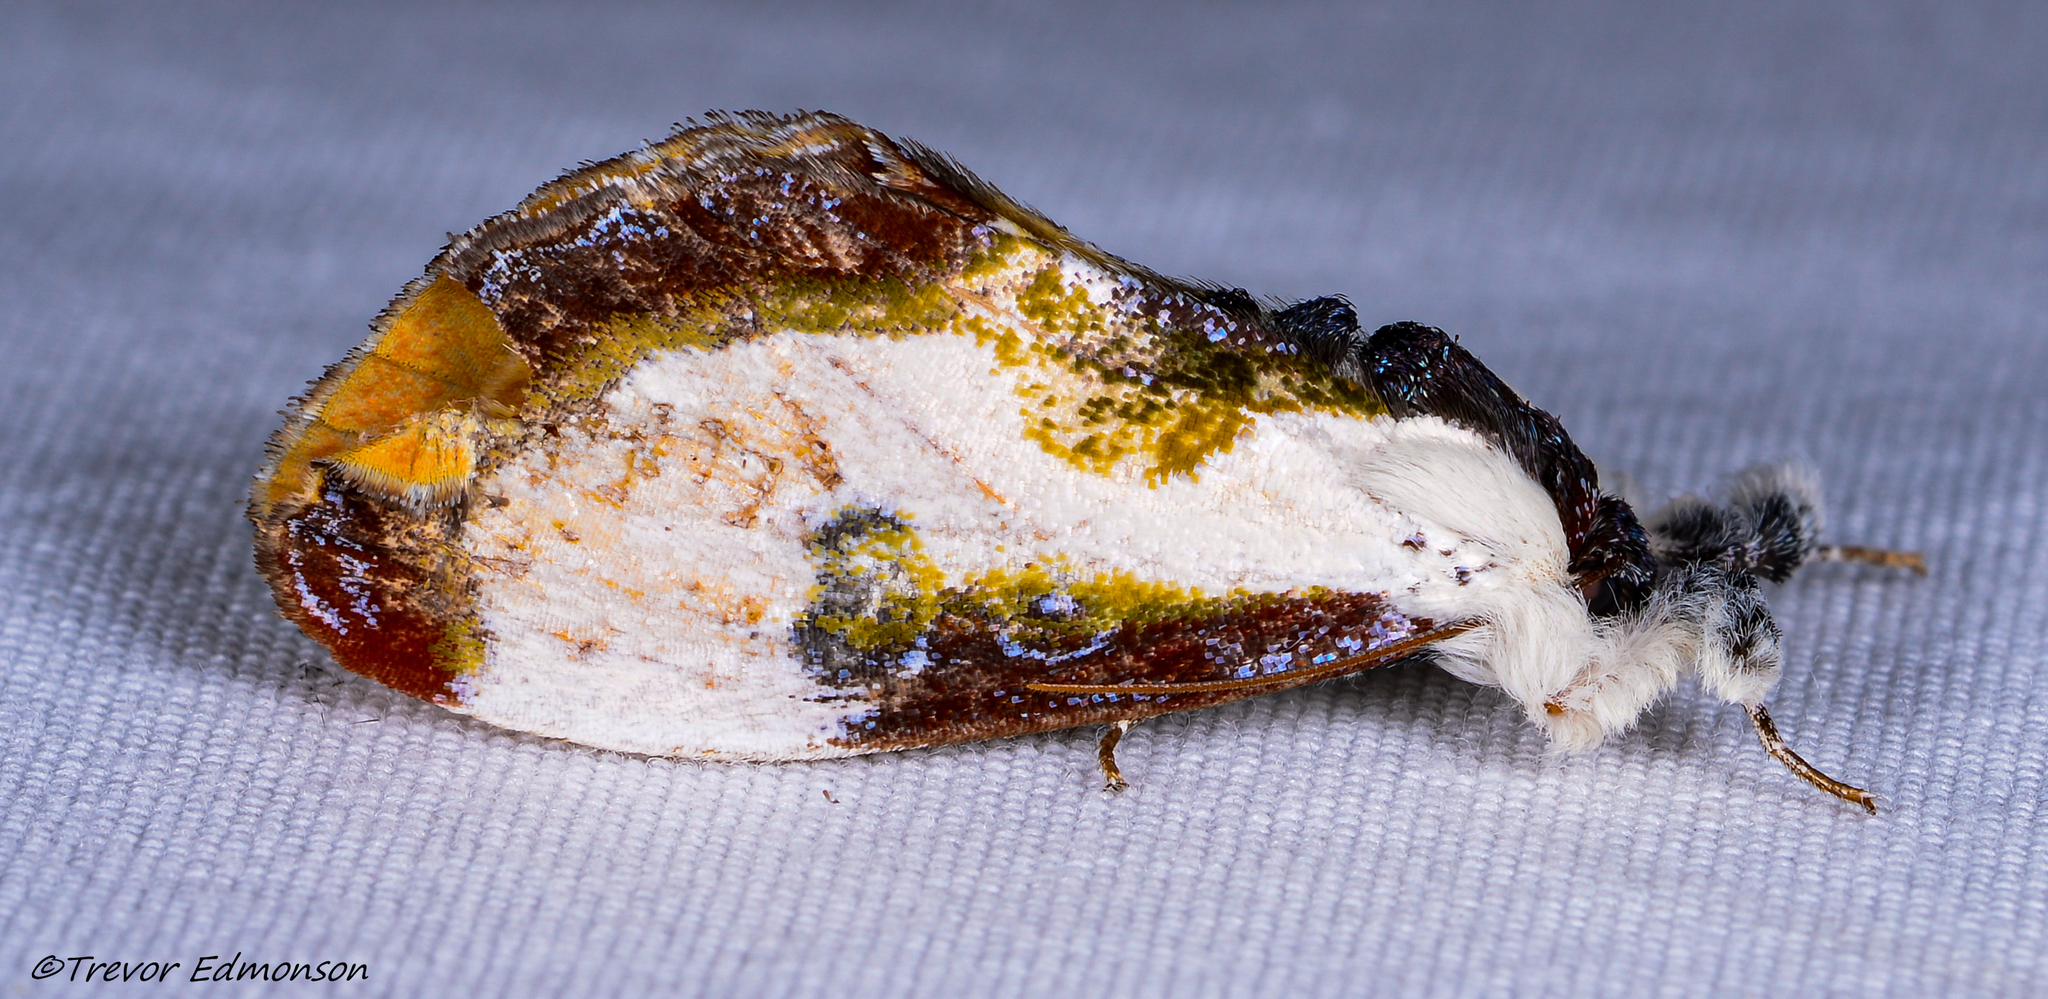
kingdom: Animalia
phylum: Arthropoda
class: Insecta
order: Lepidoptera
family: Noctuidae
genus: Eudryas
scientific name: Eudryas grata
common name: Beautiful wood-nymph
